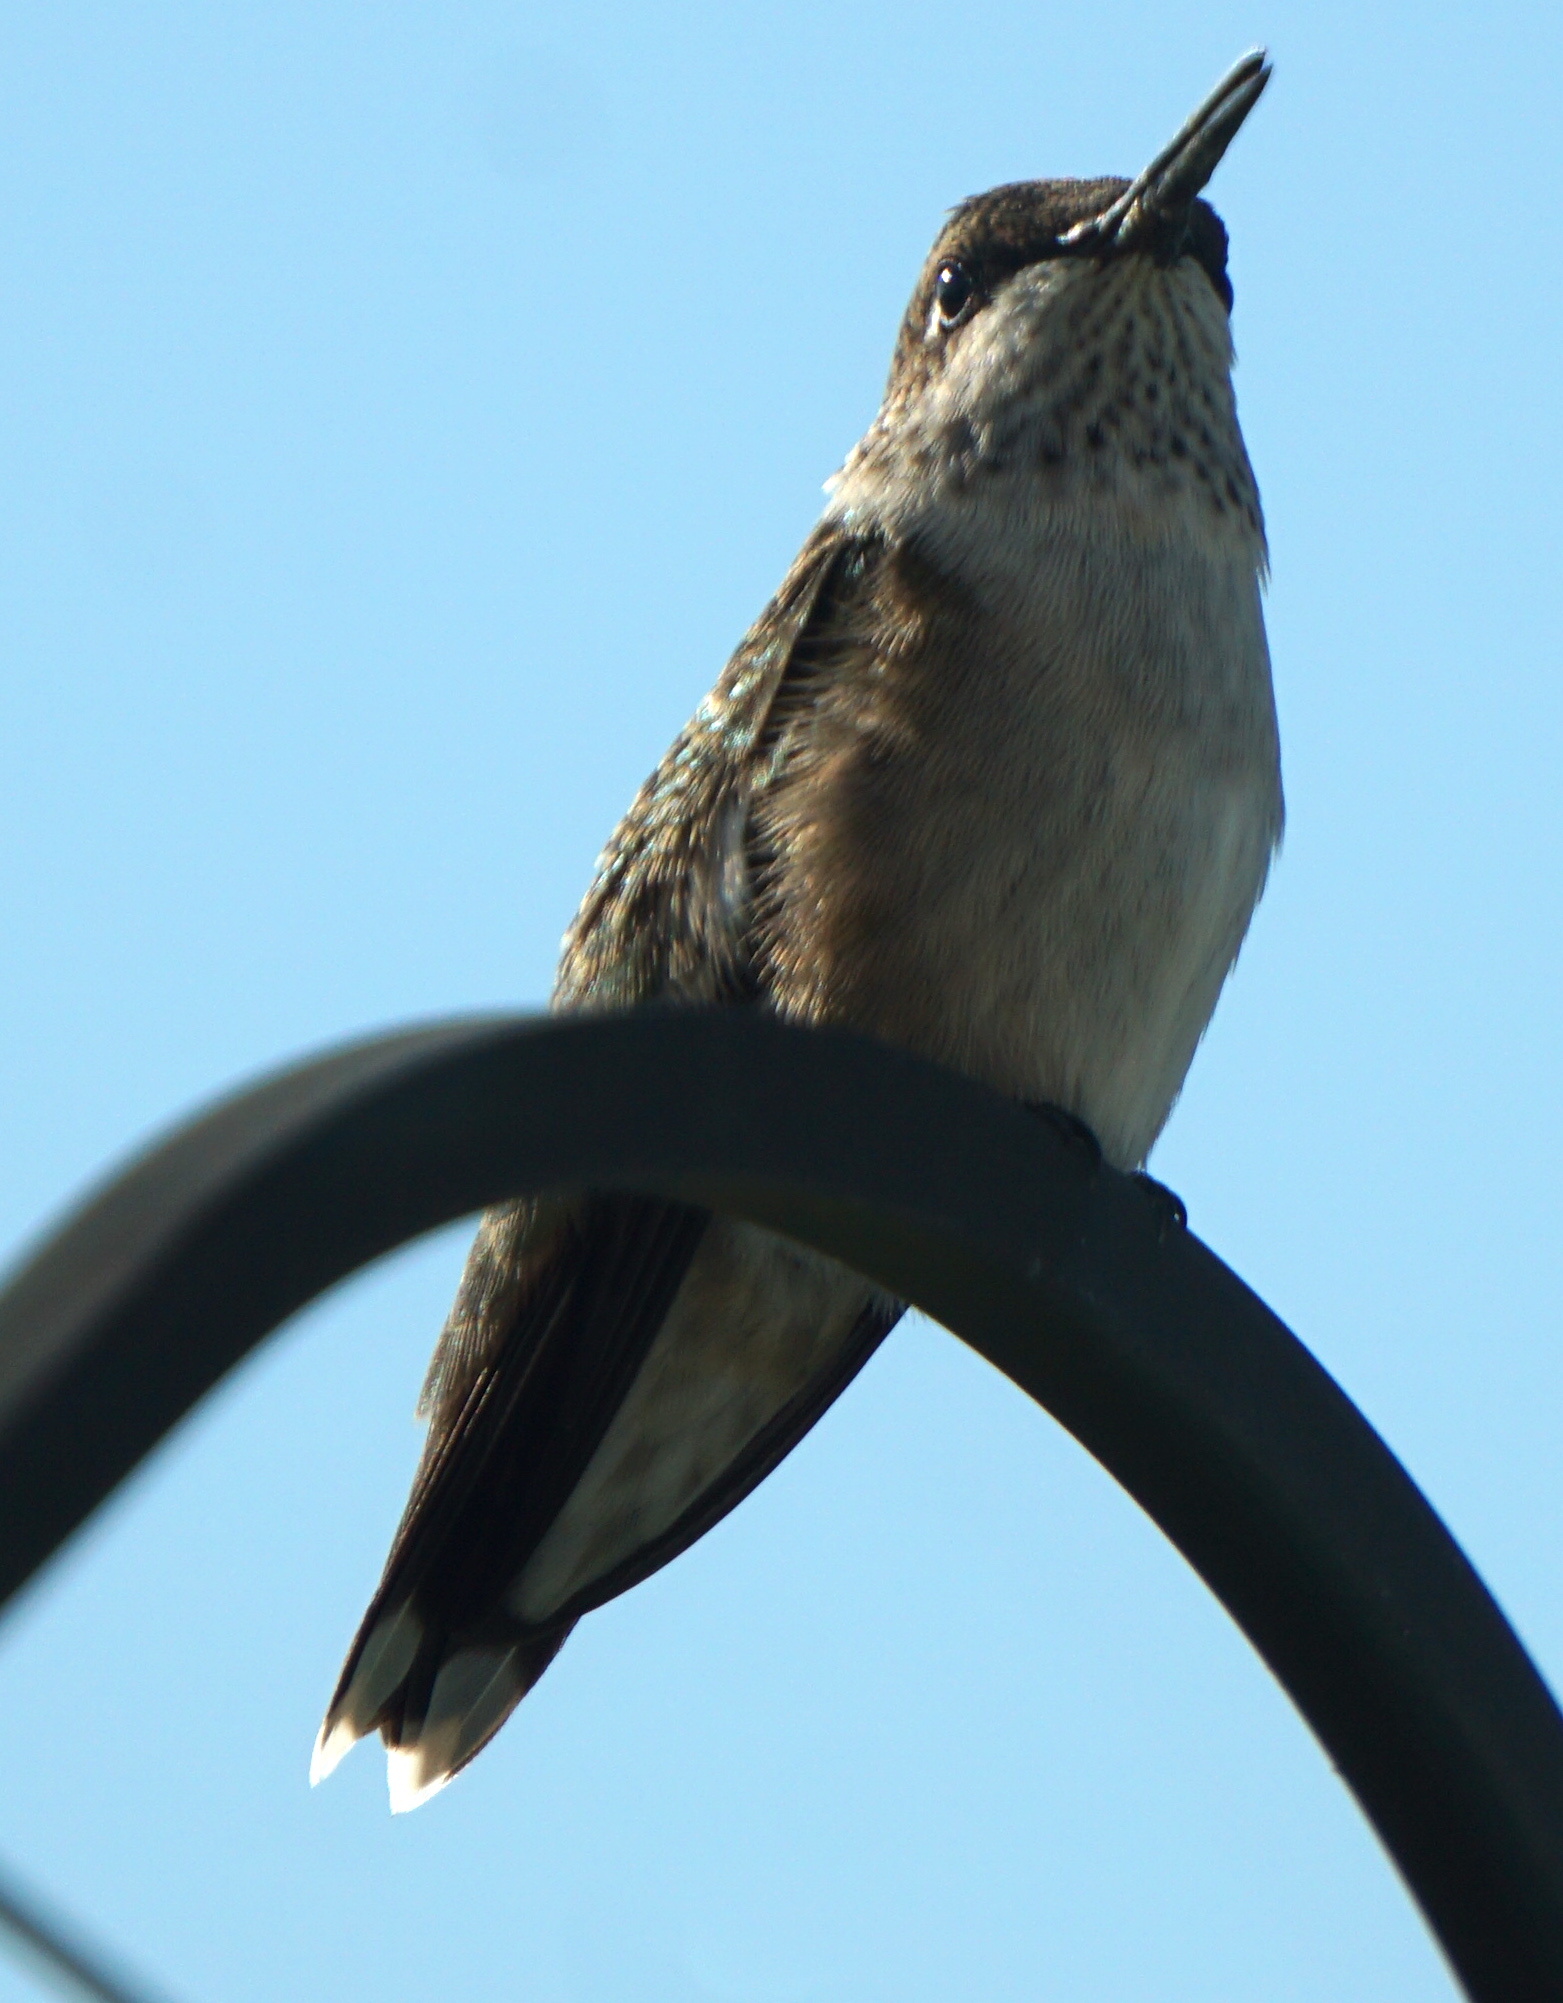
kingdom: Animalia
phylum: Chordata
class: Aves
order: Apodiformes
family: Trochilidae
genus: Archilochus
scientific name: Archilochus colubris
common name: Ruby-throated hummingbird
